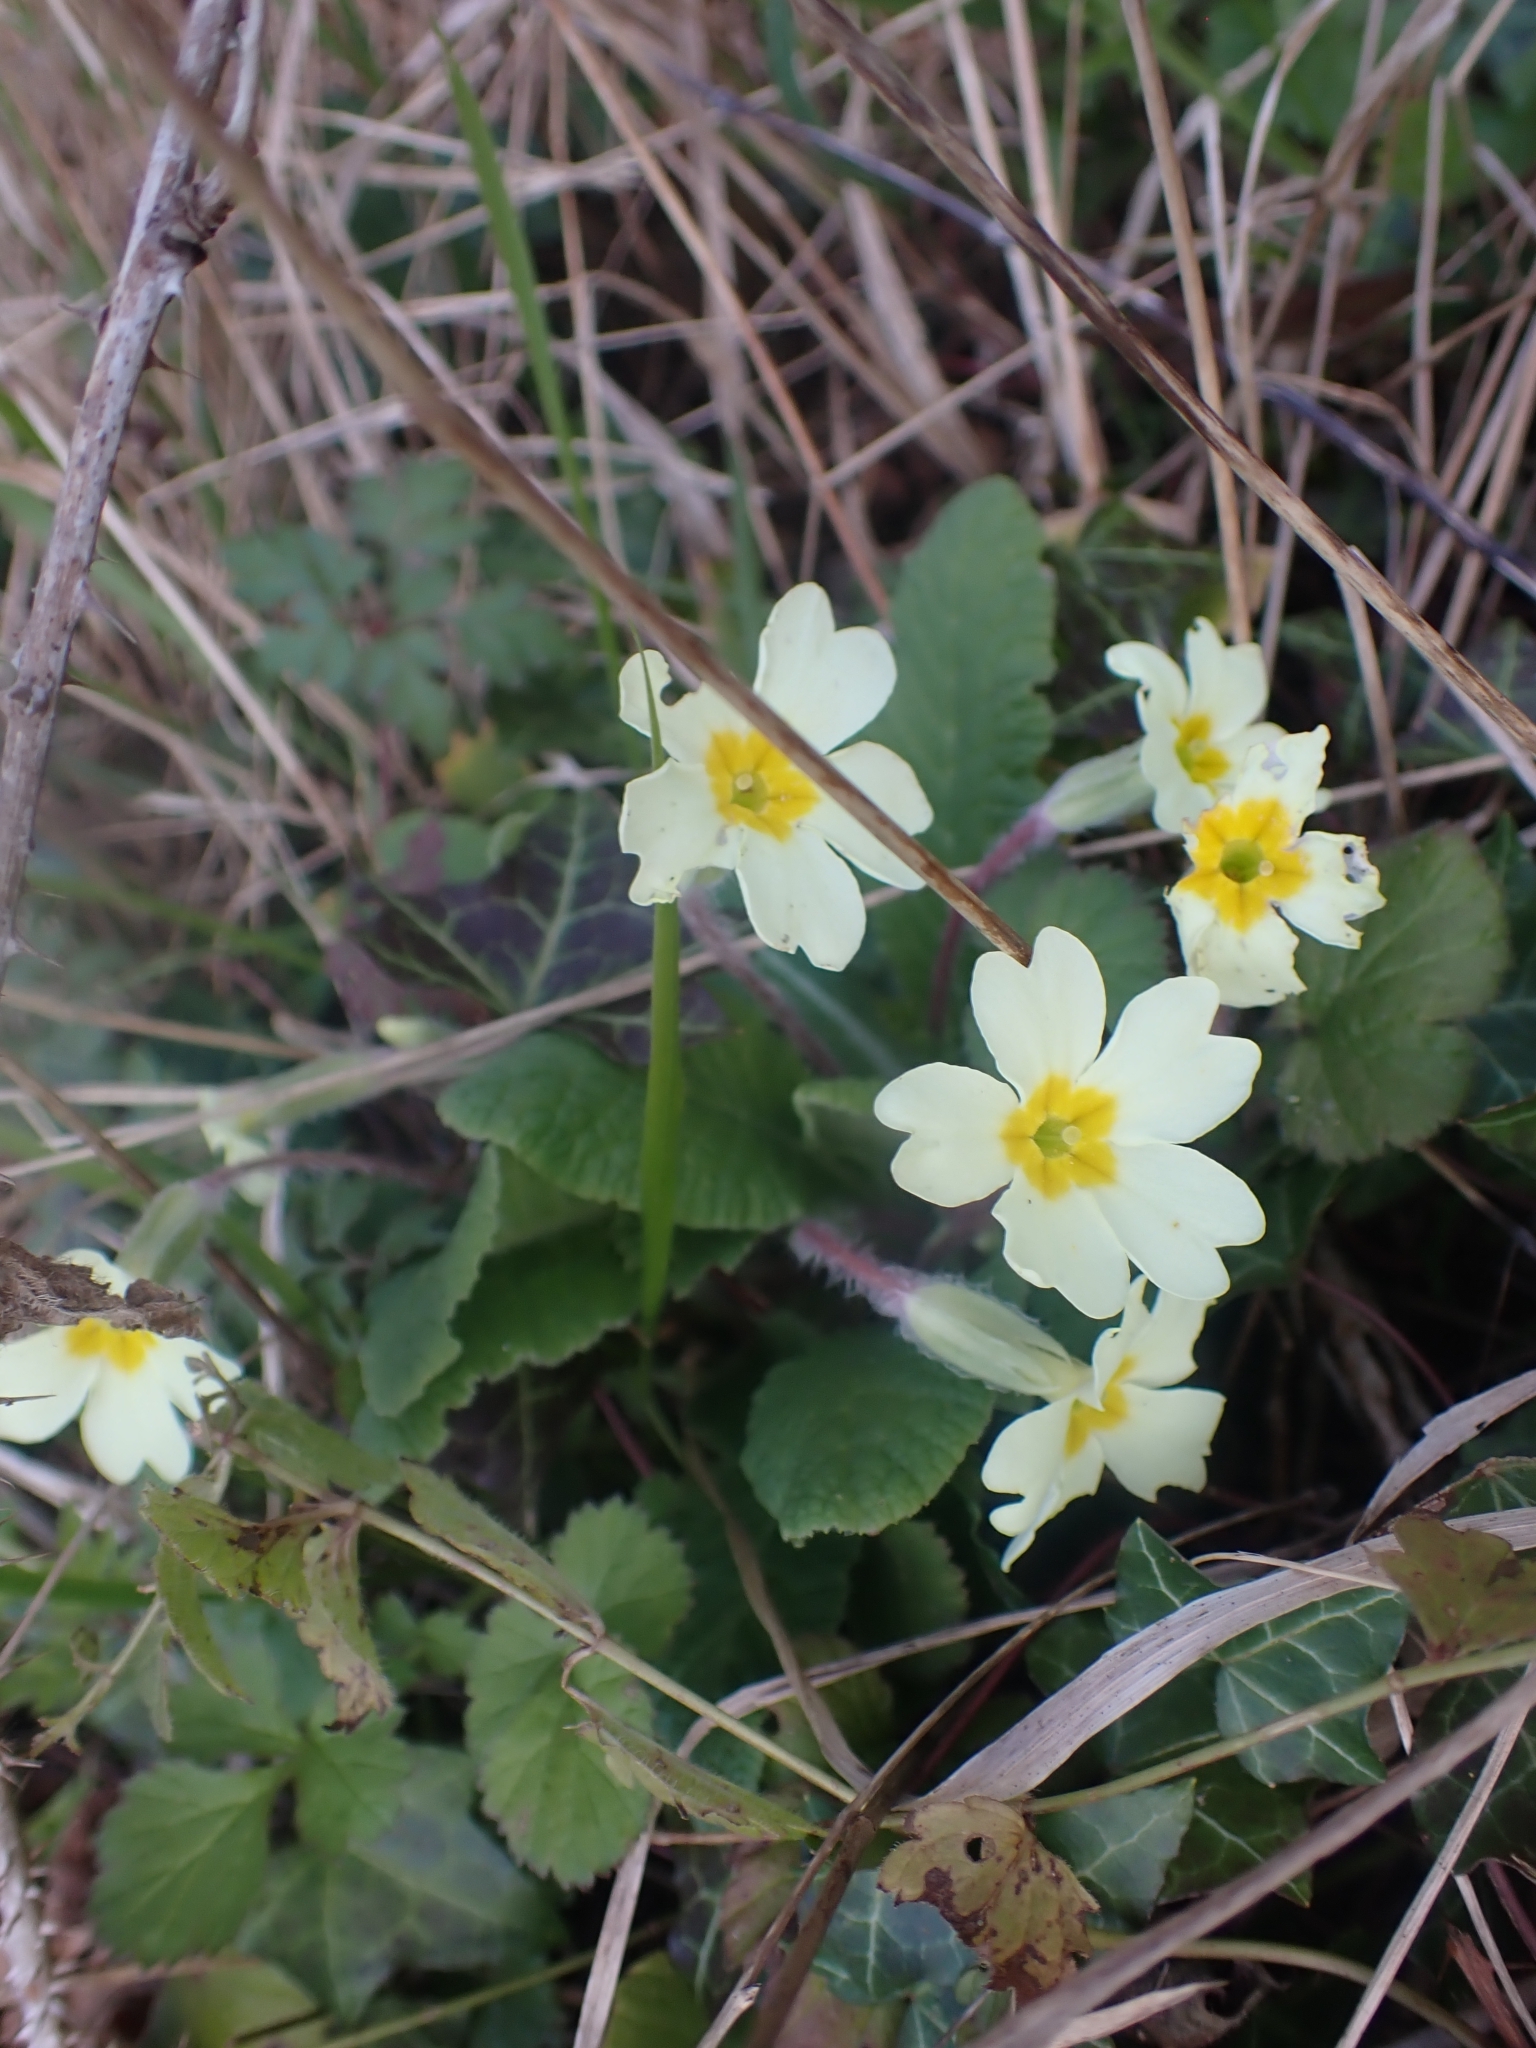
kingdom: Plantae
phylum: Tracheophyta
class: Magnoliopsida
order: Ericales
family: Primulaceae
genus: Primula
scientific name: Primula vulgaris
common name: Primrose
